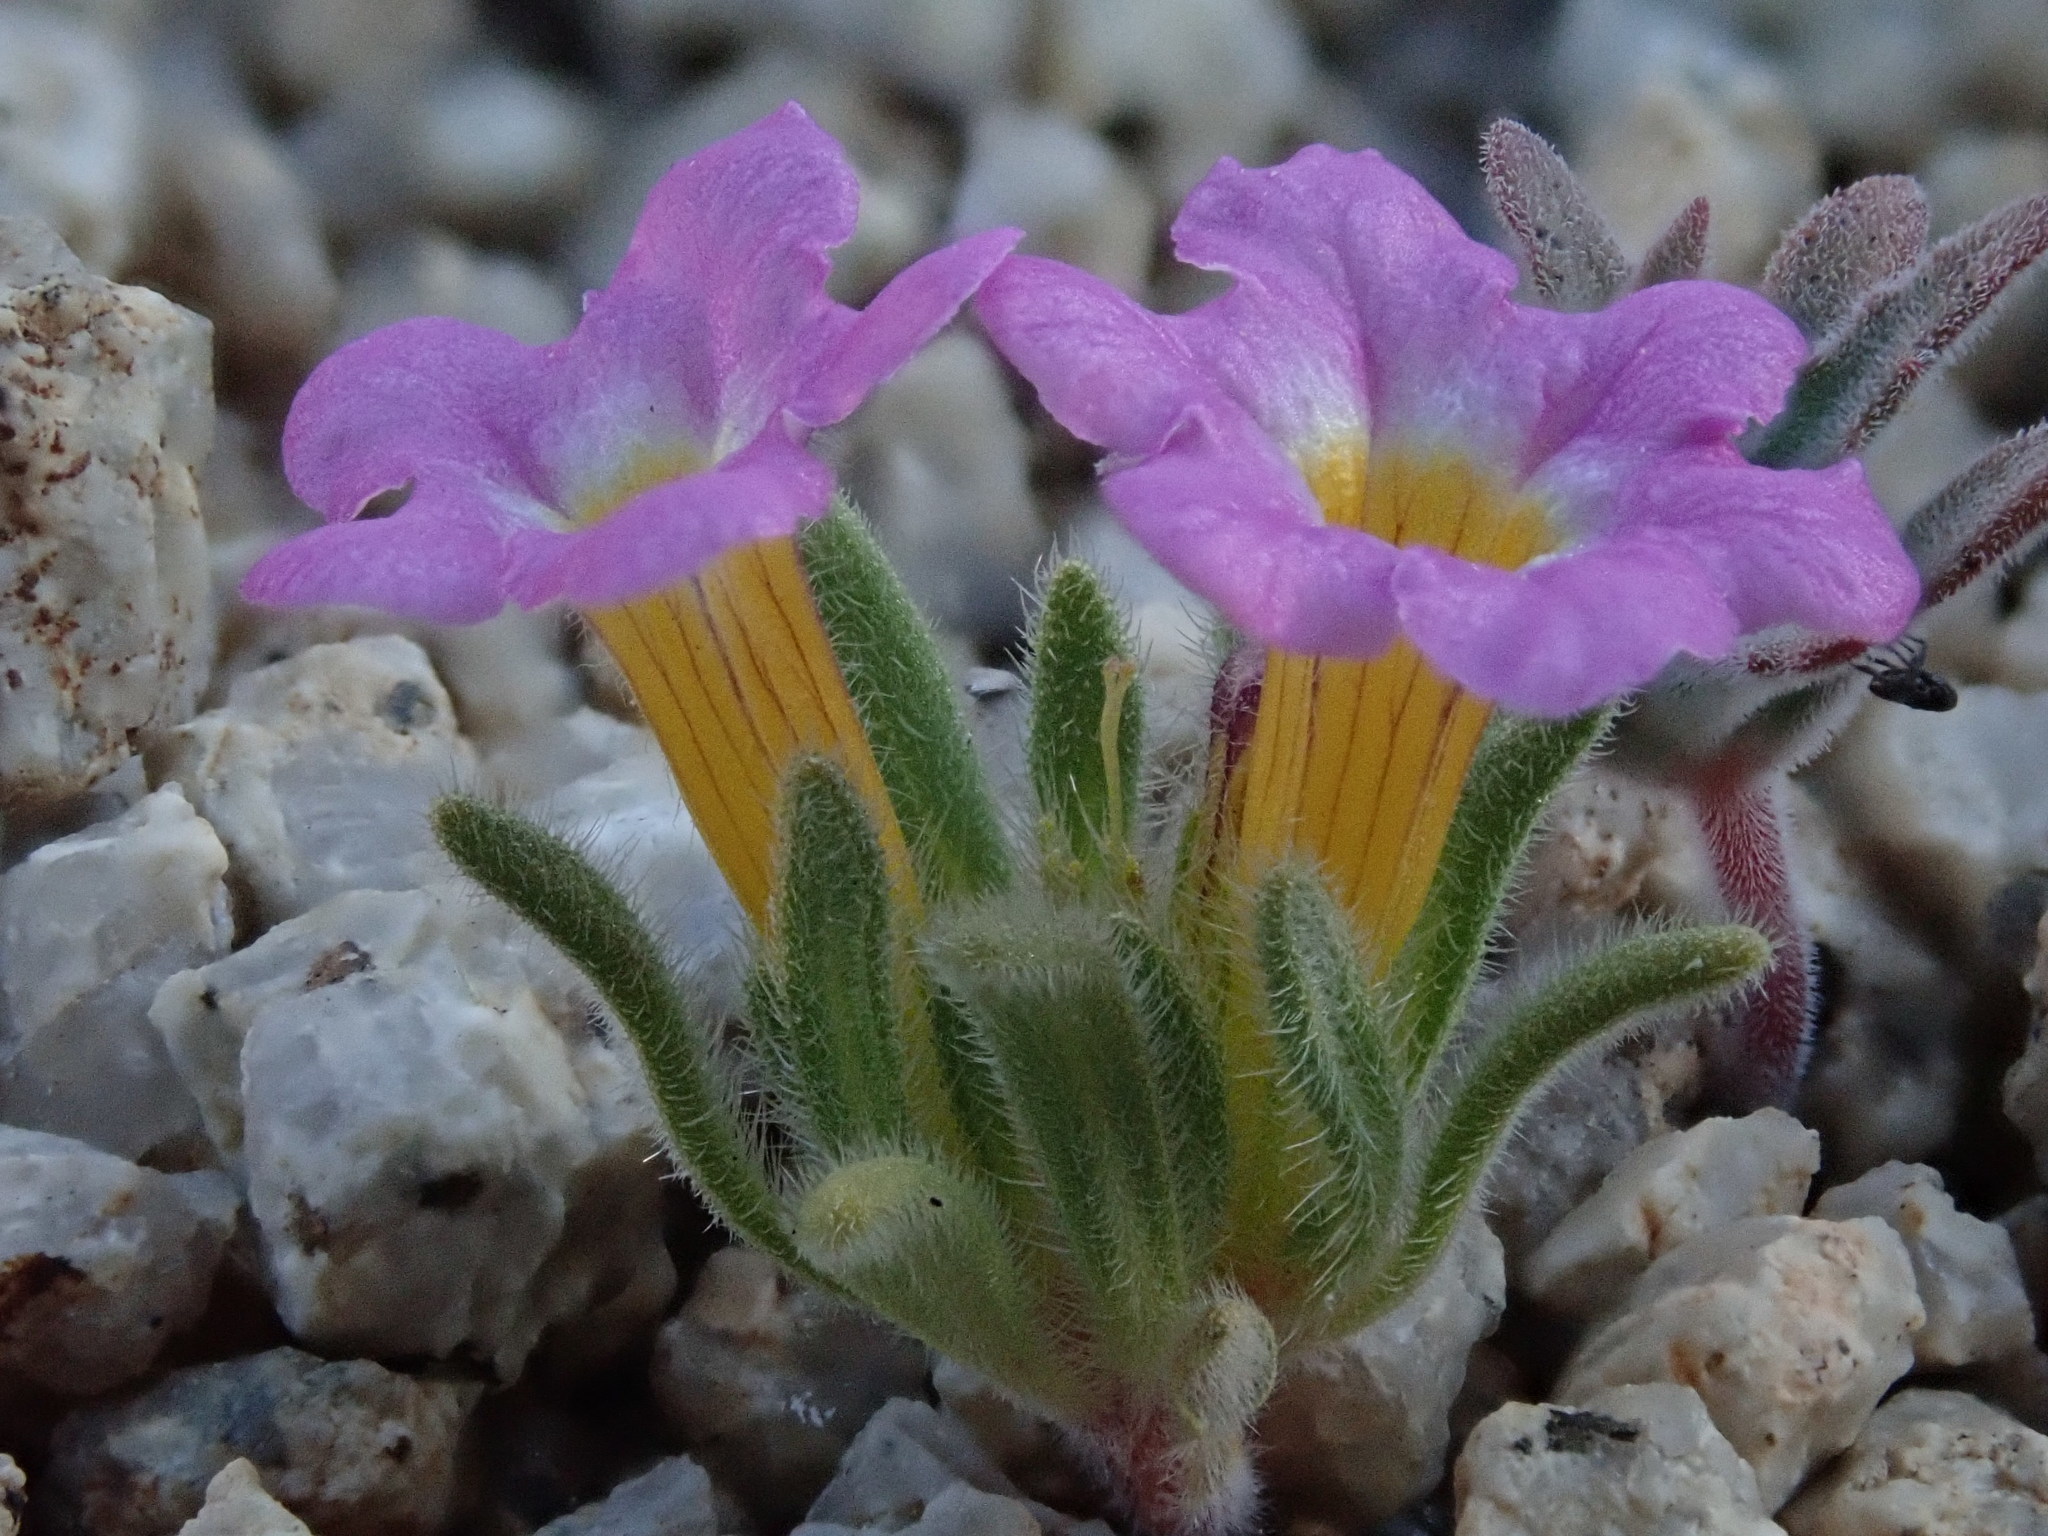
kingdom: Plantae
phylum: Tracheophyta
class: Magnoliopsida
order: Boraginales
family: Namaceae
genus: Nama
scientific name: Nama aretioides
